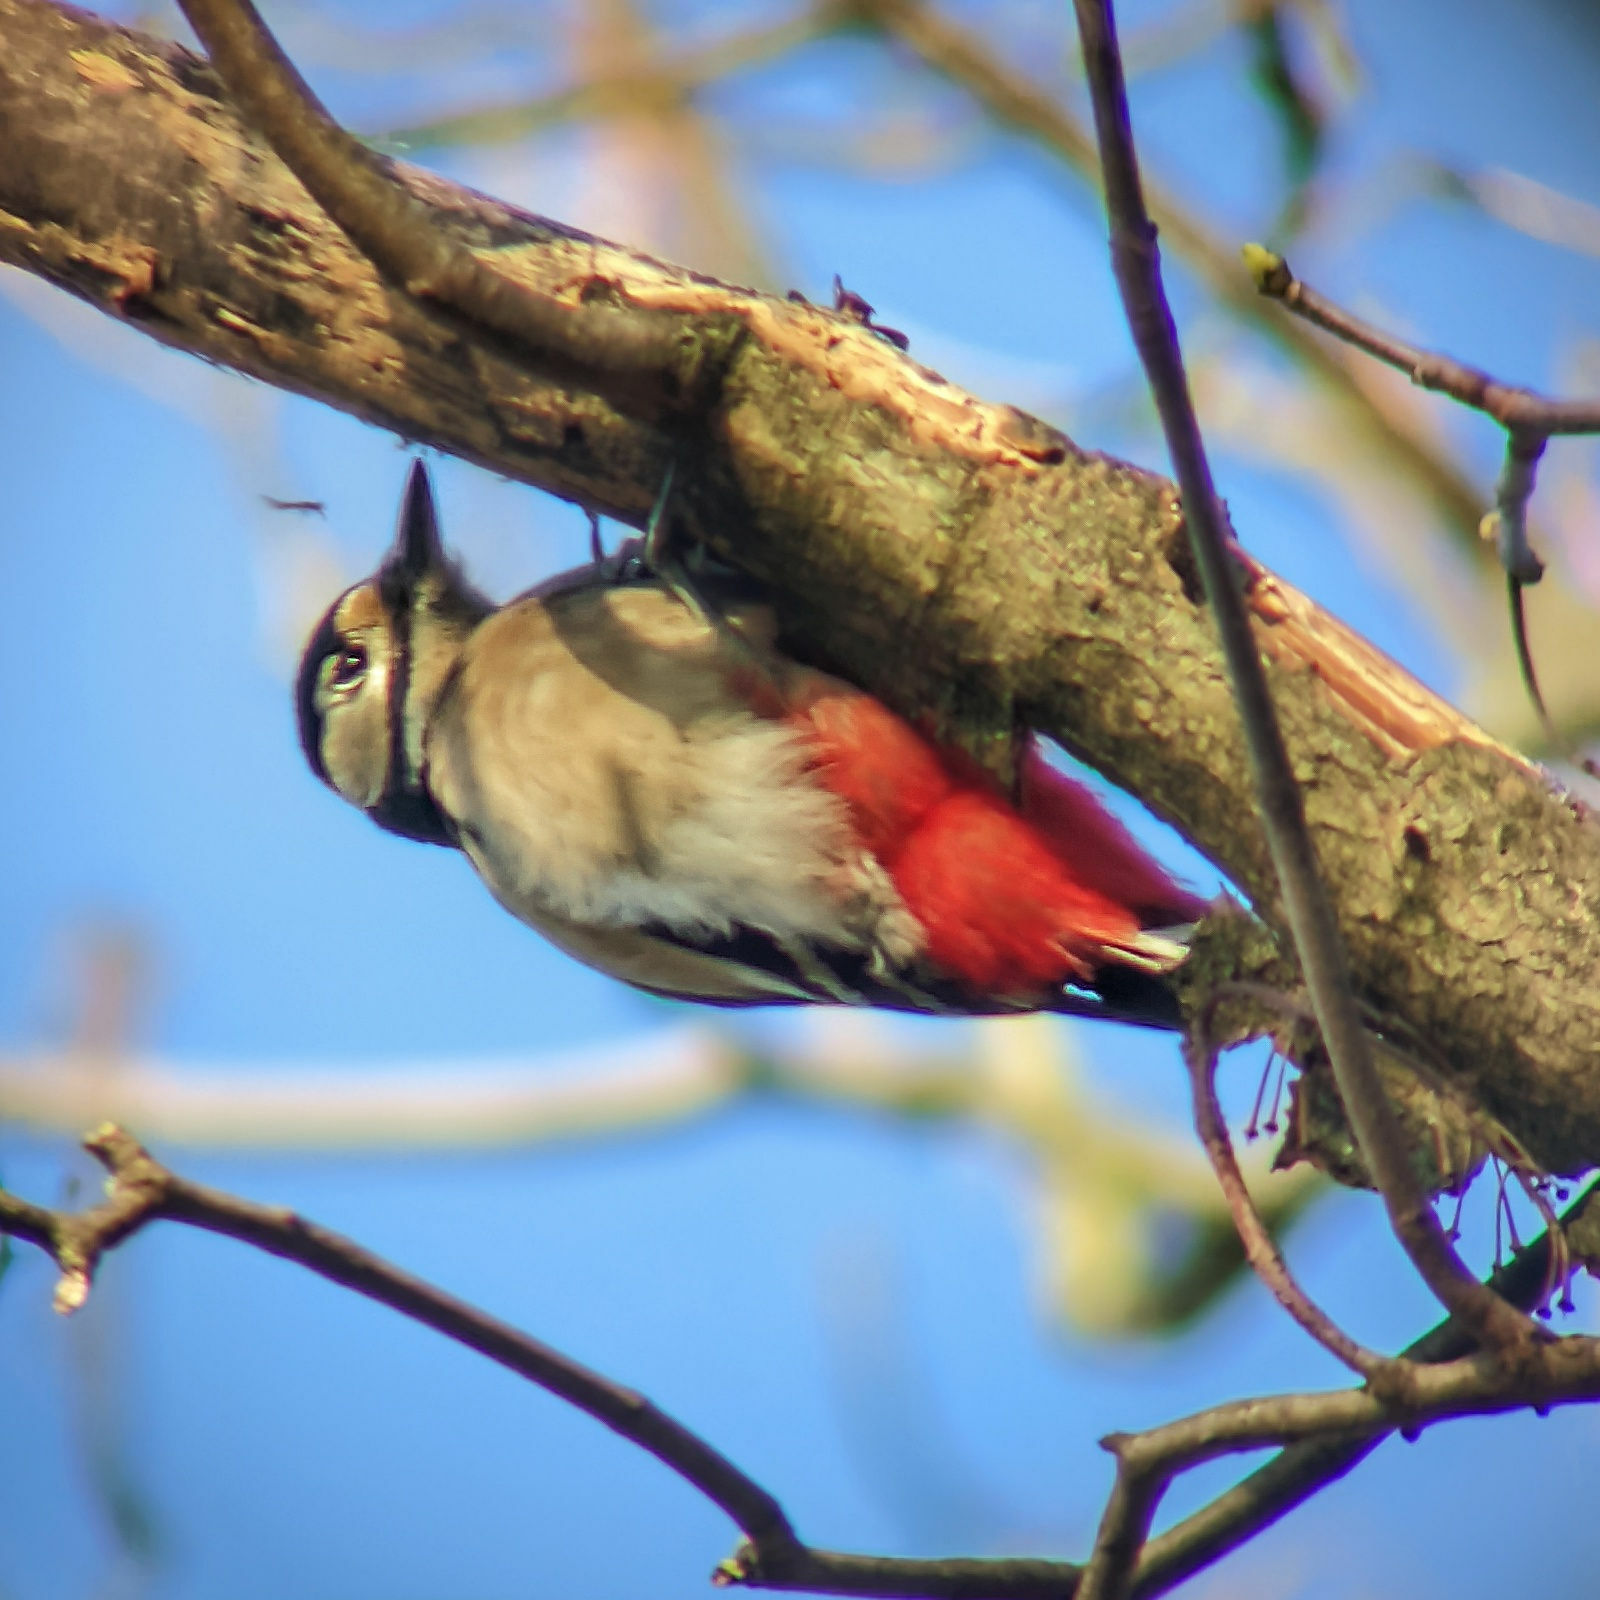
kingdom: Animalia
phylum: Chordata
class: Aves
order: Piciformes
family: Picidae
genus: Dendrocopos
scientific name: Dendrocopos major
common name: Great spotted woodpecker
